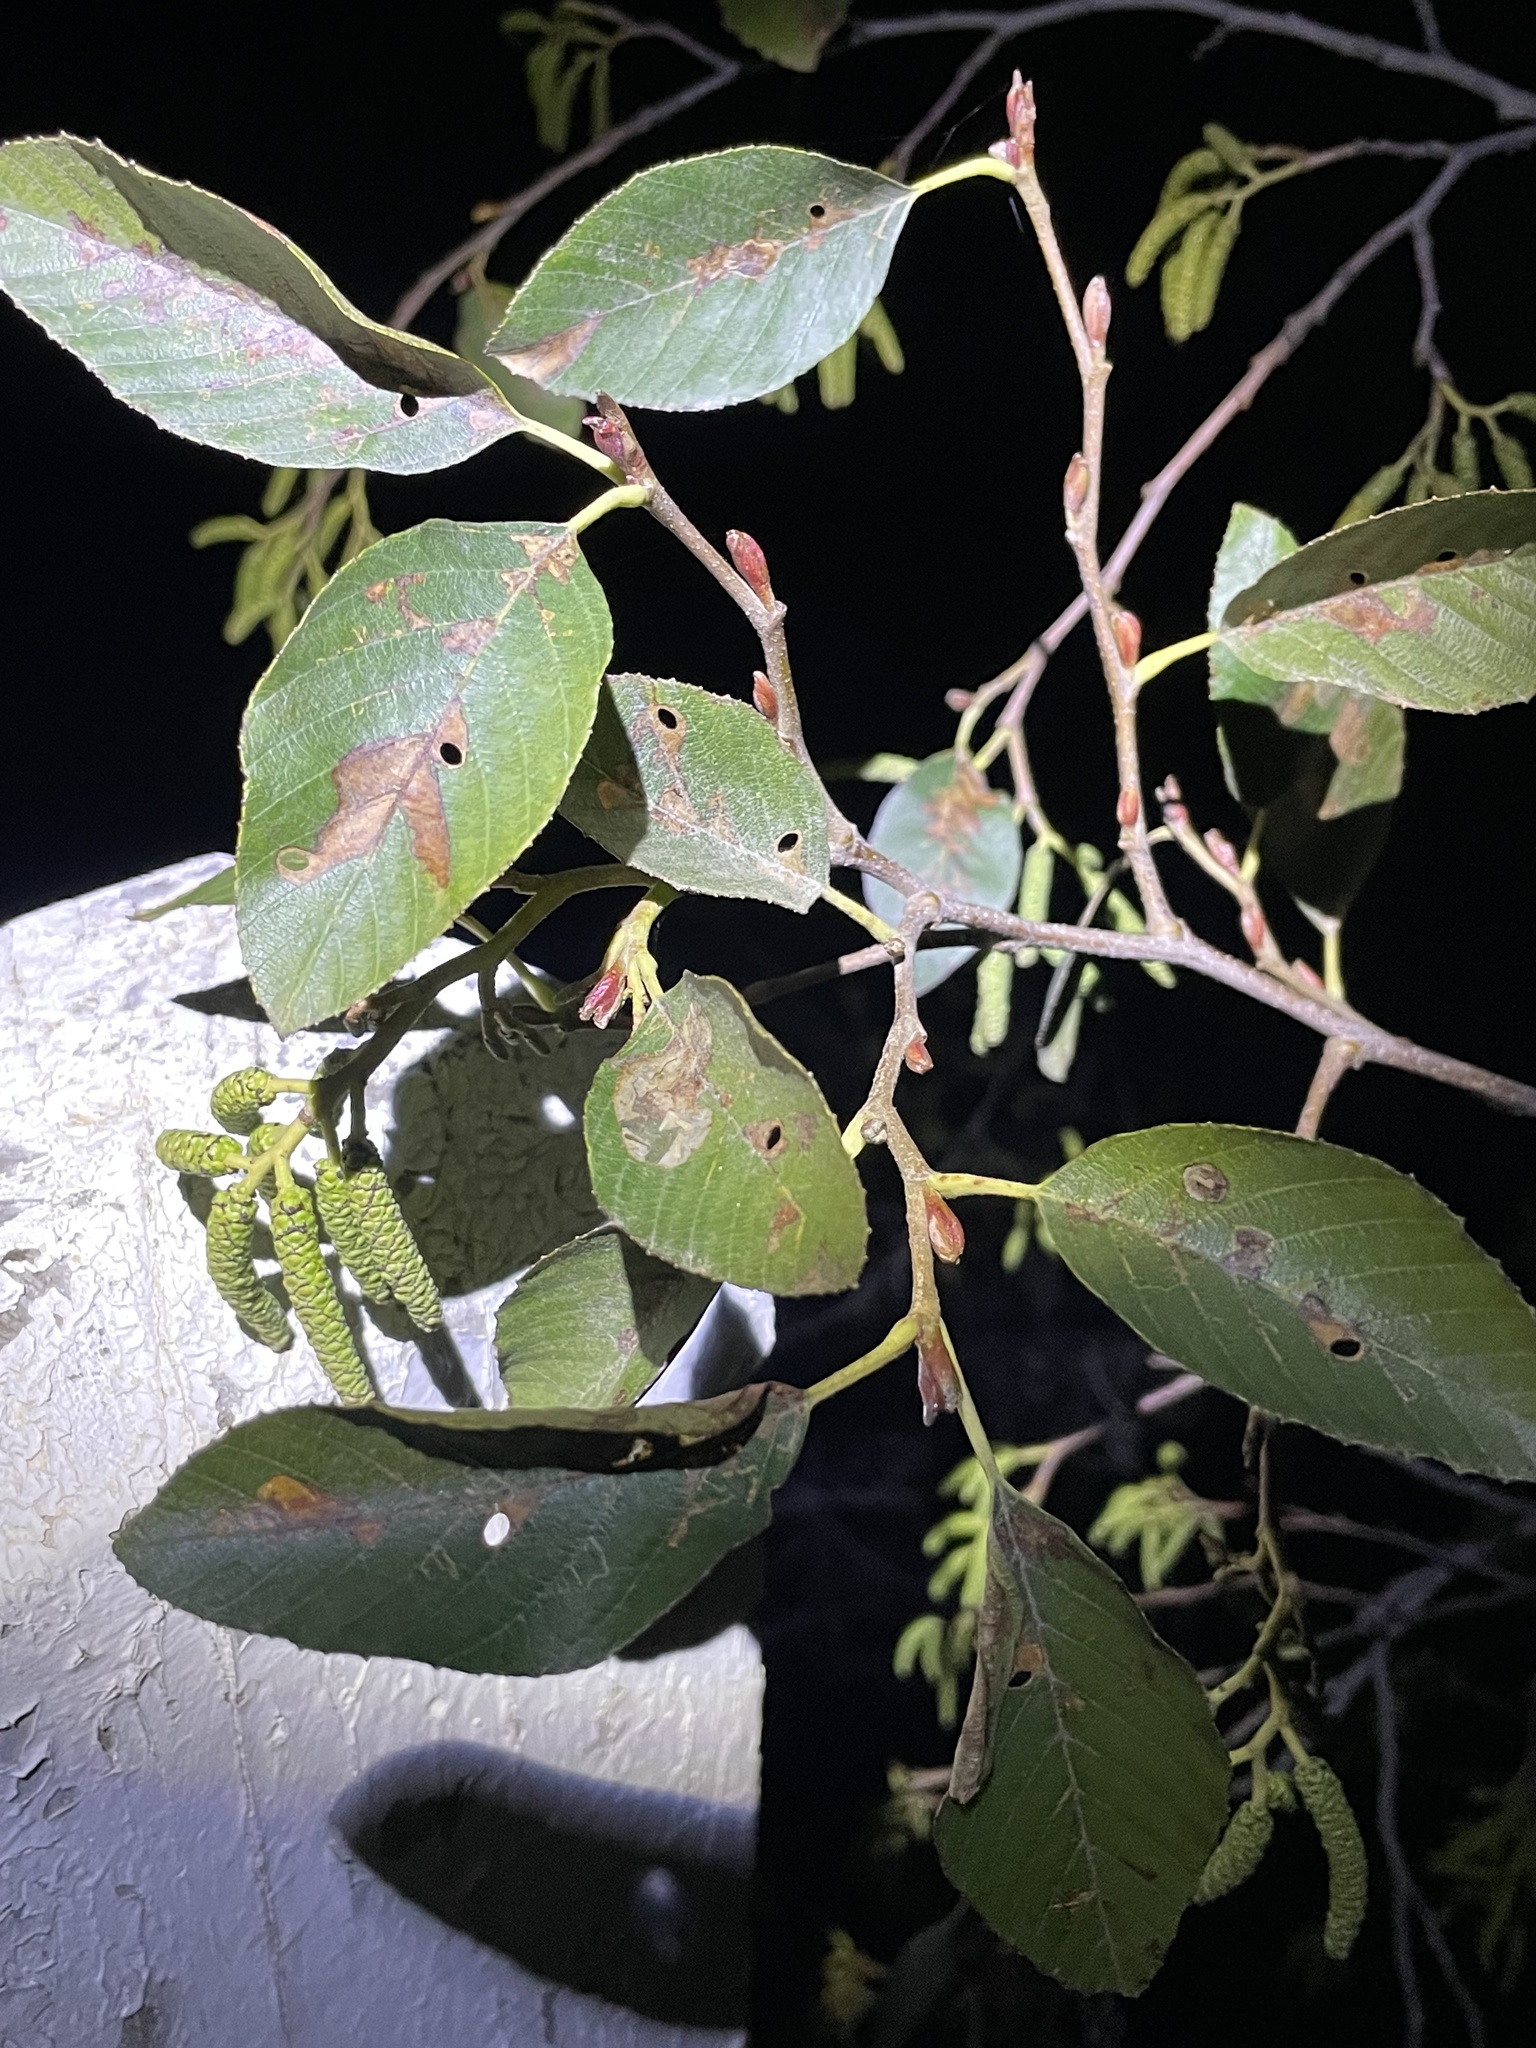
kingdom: Plantae
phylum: Tracheophyta
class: Magnoliopsida
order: Fagales
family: Betulaceae
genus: Alnus
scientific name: Alnus rhombifolia
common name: California alder
